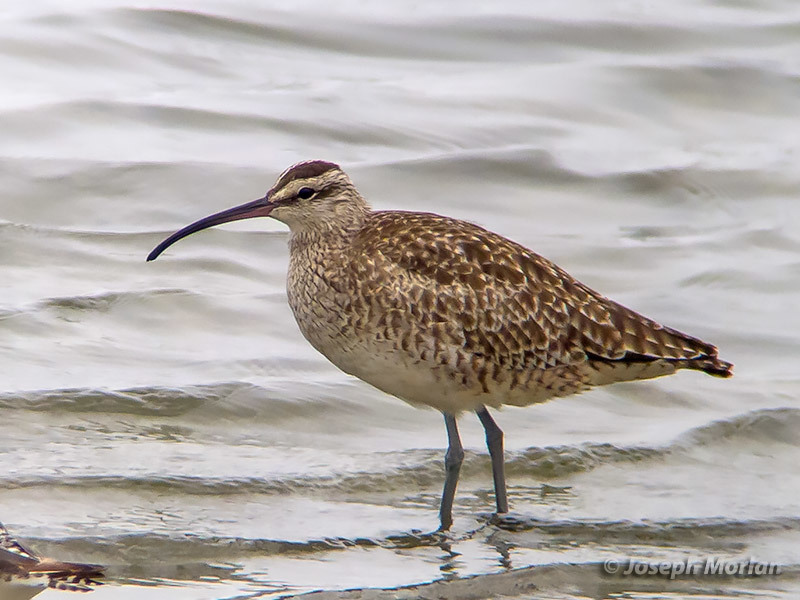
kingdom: Animalia
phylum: Chordata
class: Aves
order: Charadriiformes
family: Scolopacidae
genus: Numenius
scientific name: Numenius phaeopus
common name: Whimbrel
